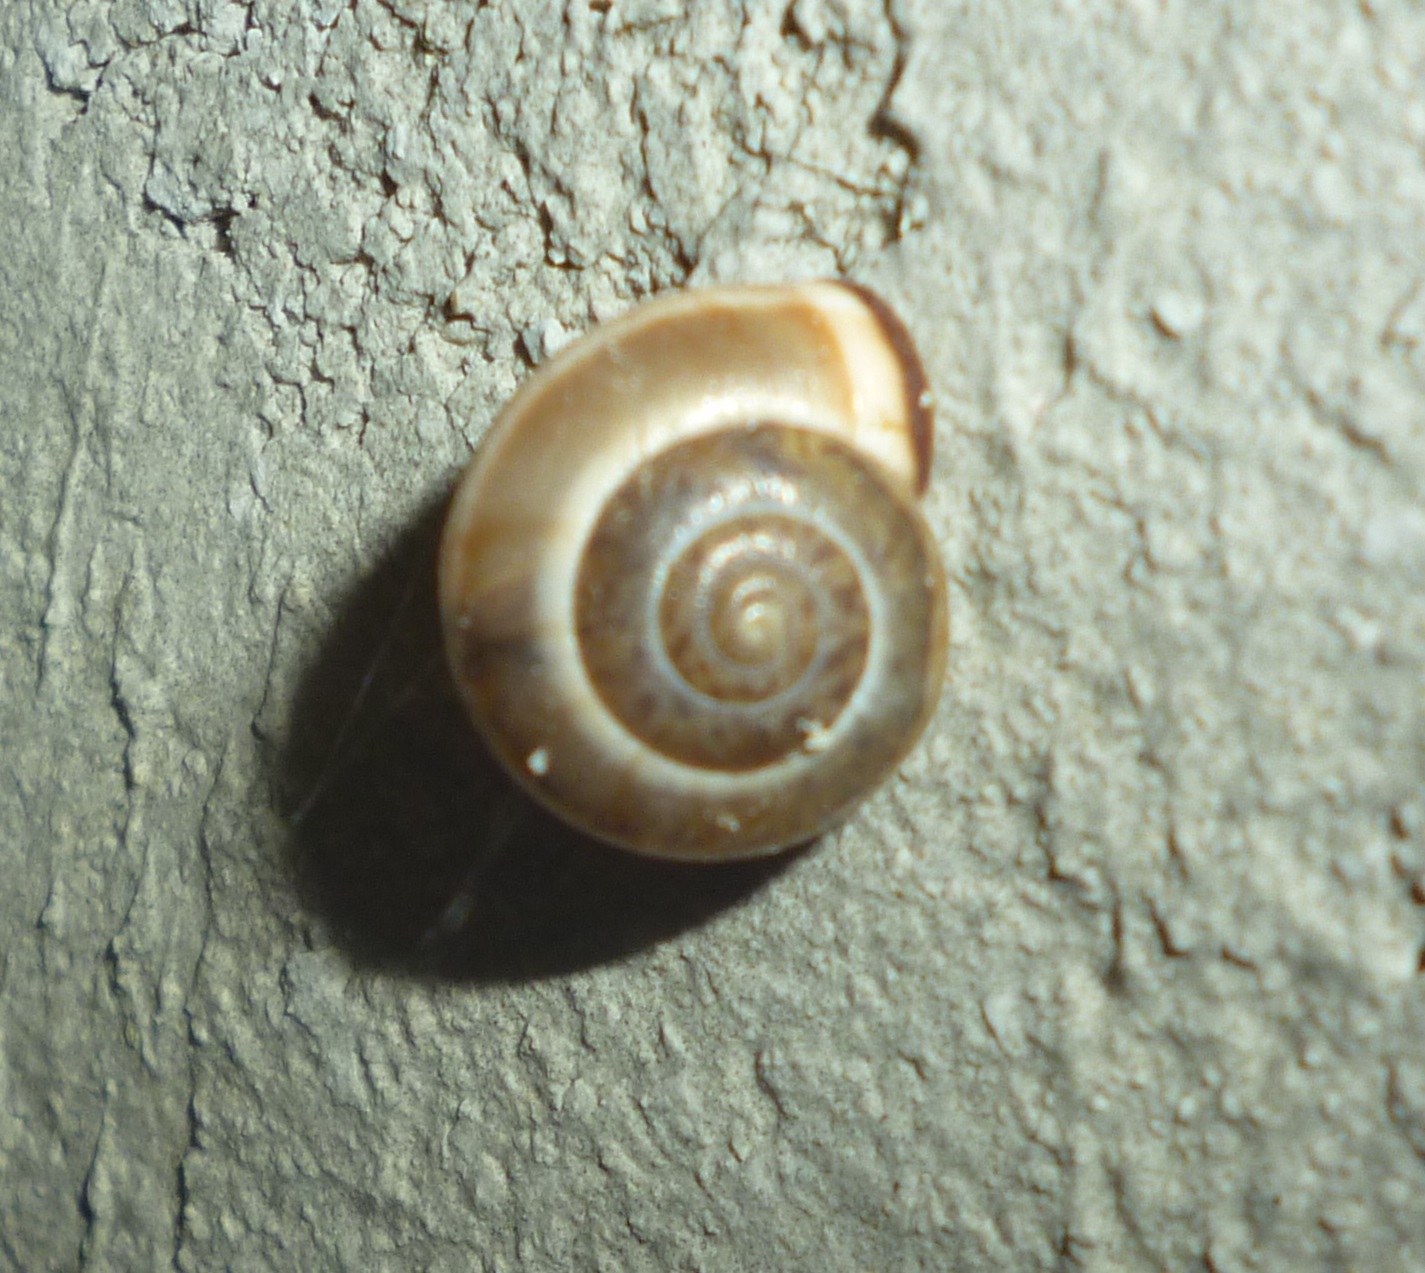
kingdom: Animalia
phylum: Mollusca
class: Gastropoda
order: Stylommatophora
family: Hygromiidae
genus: Monacha
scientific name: Monacha syriaca
